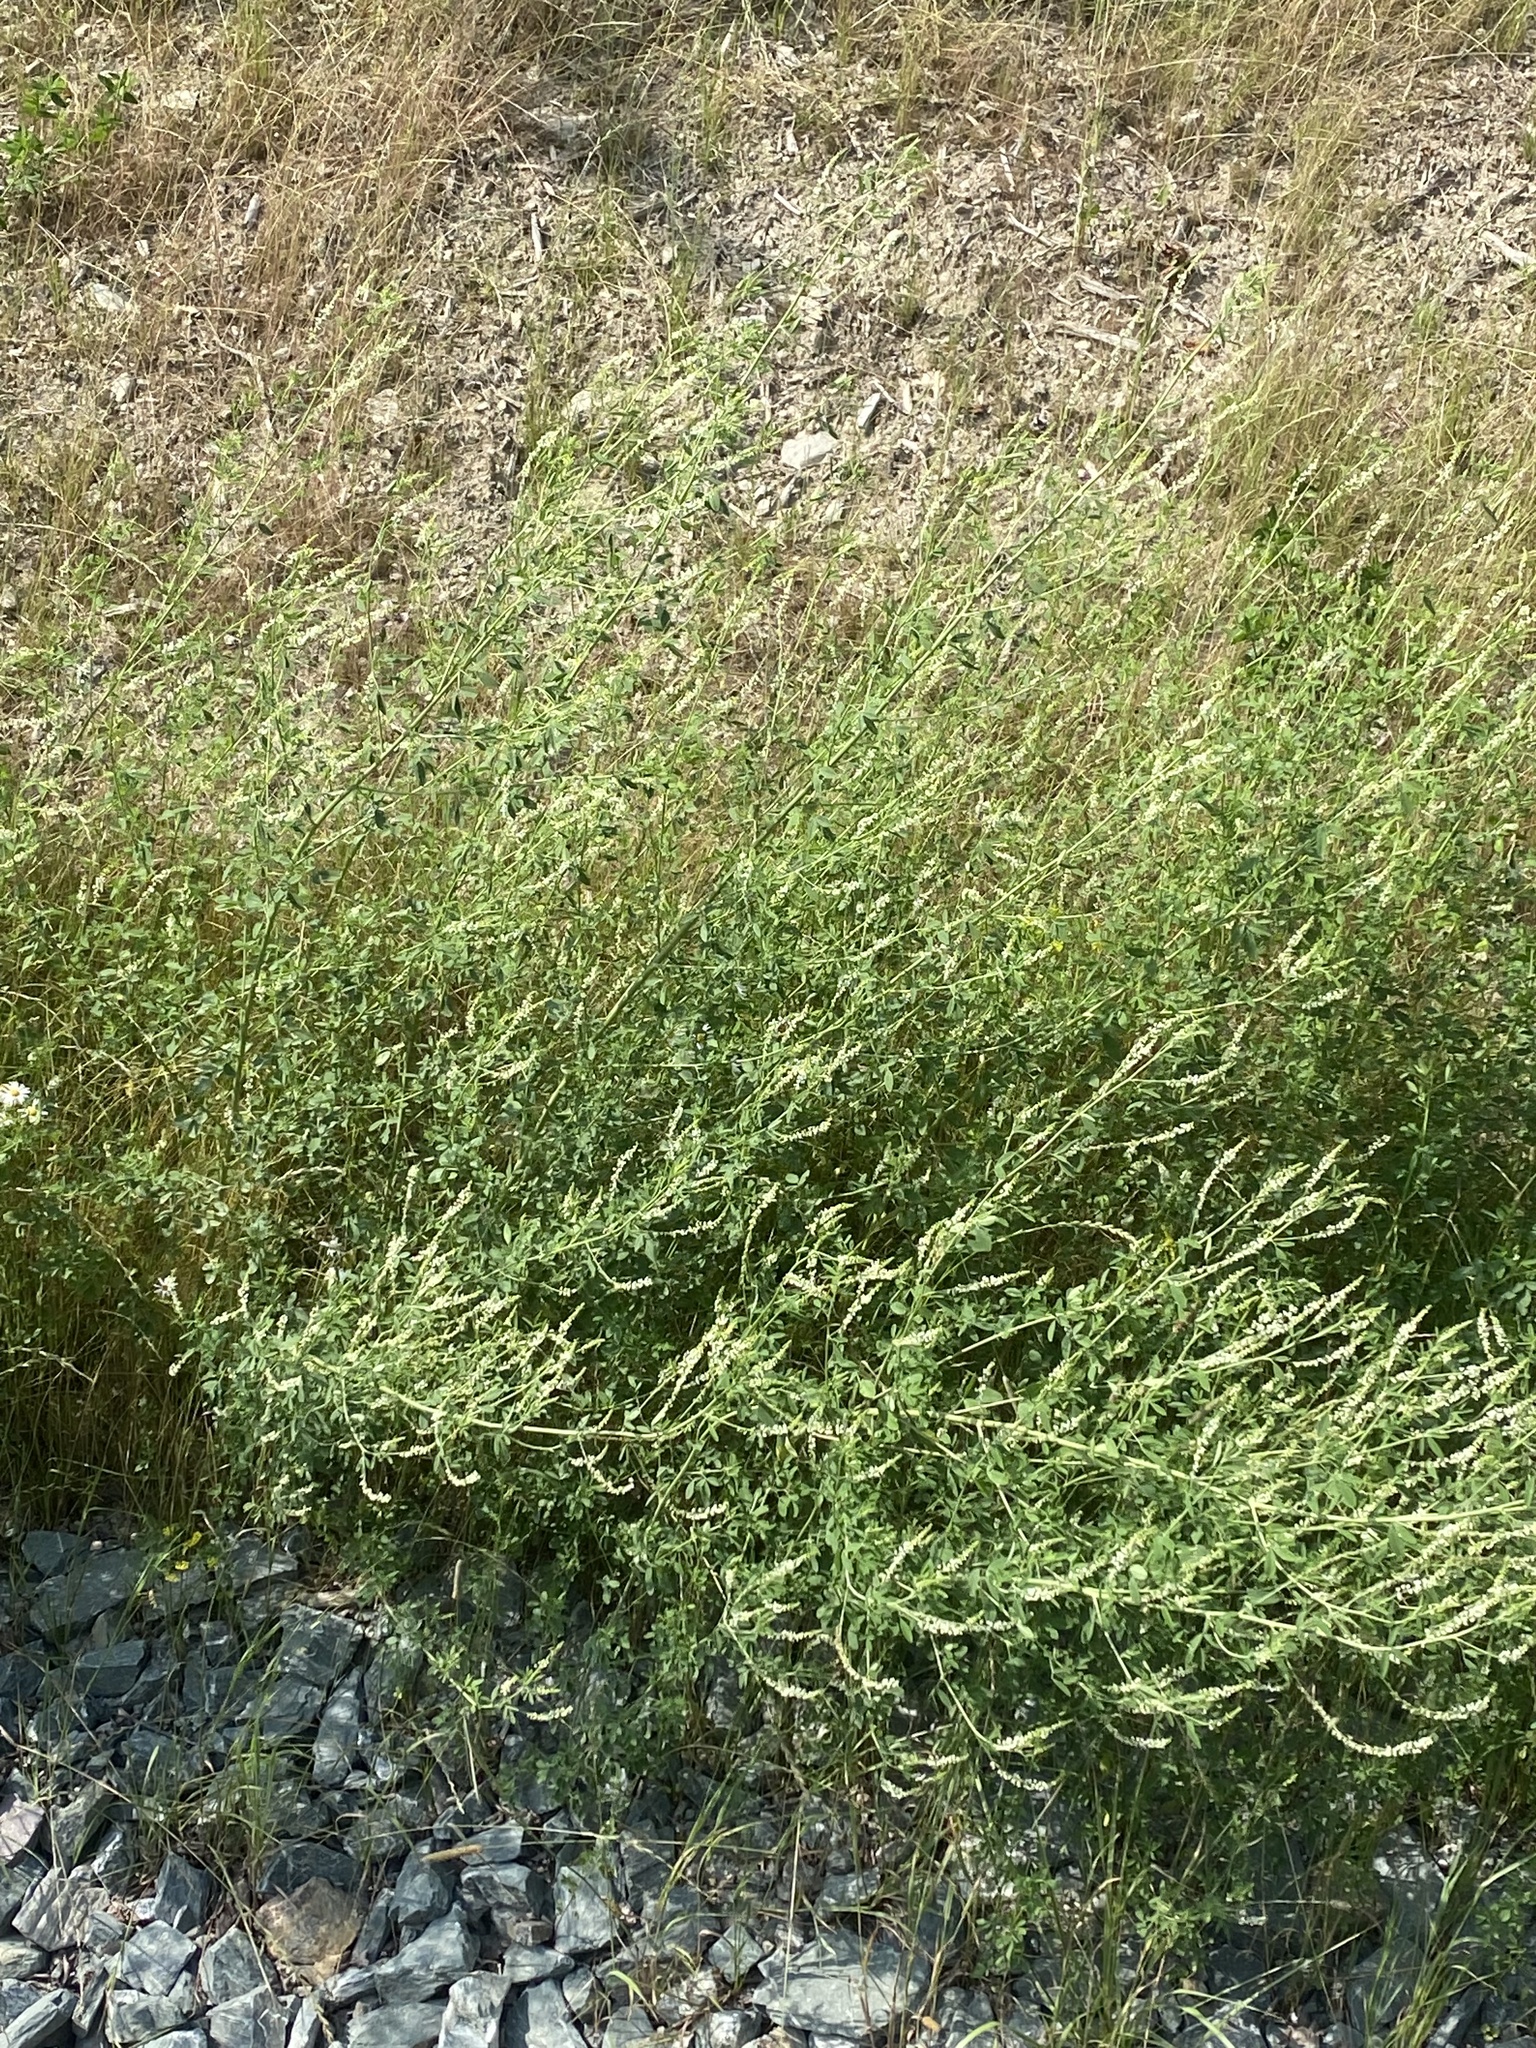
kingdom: Plantae
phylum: Tracheophyta
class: Magnoliopsida
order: Fabales
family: Fabaceae
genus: Melilotus
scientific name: Melilotus albus
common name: White melilot
